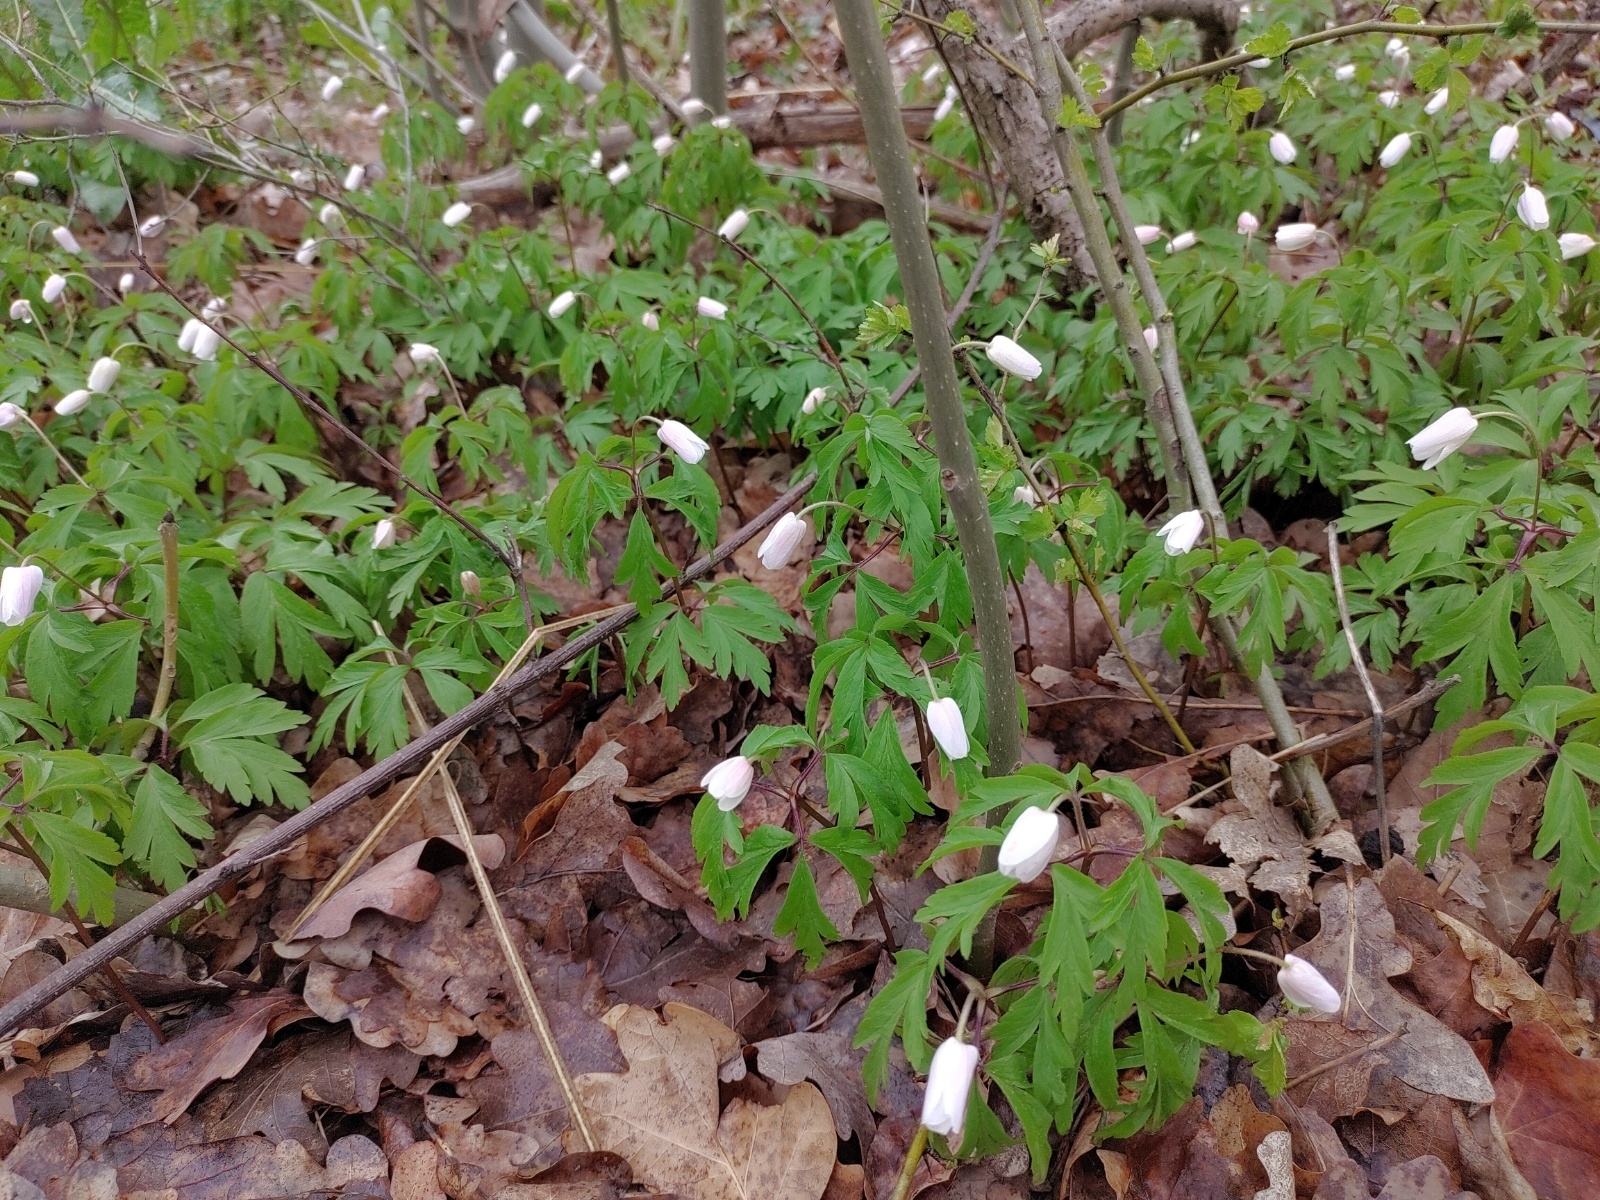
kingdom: Plantae
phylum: Tracheophyta
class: Magnoliopsida
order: Ranunculales
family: Ranunculaceae
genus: Anemone
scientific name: Anemone nemorosa
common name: Wood anemone
